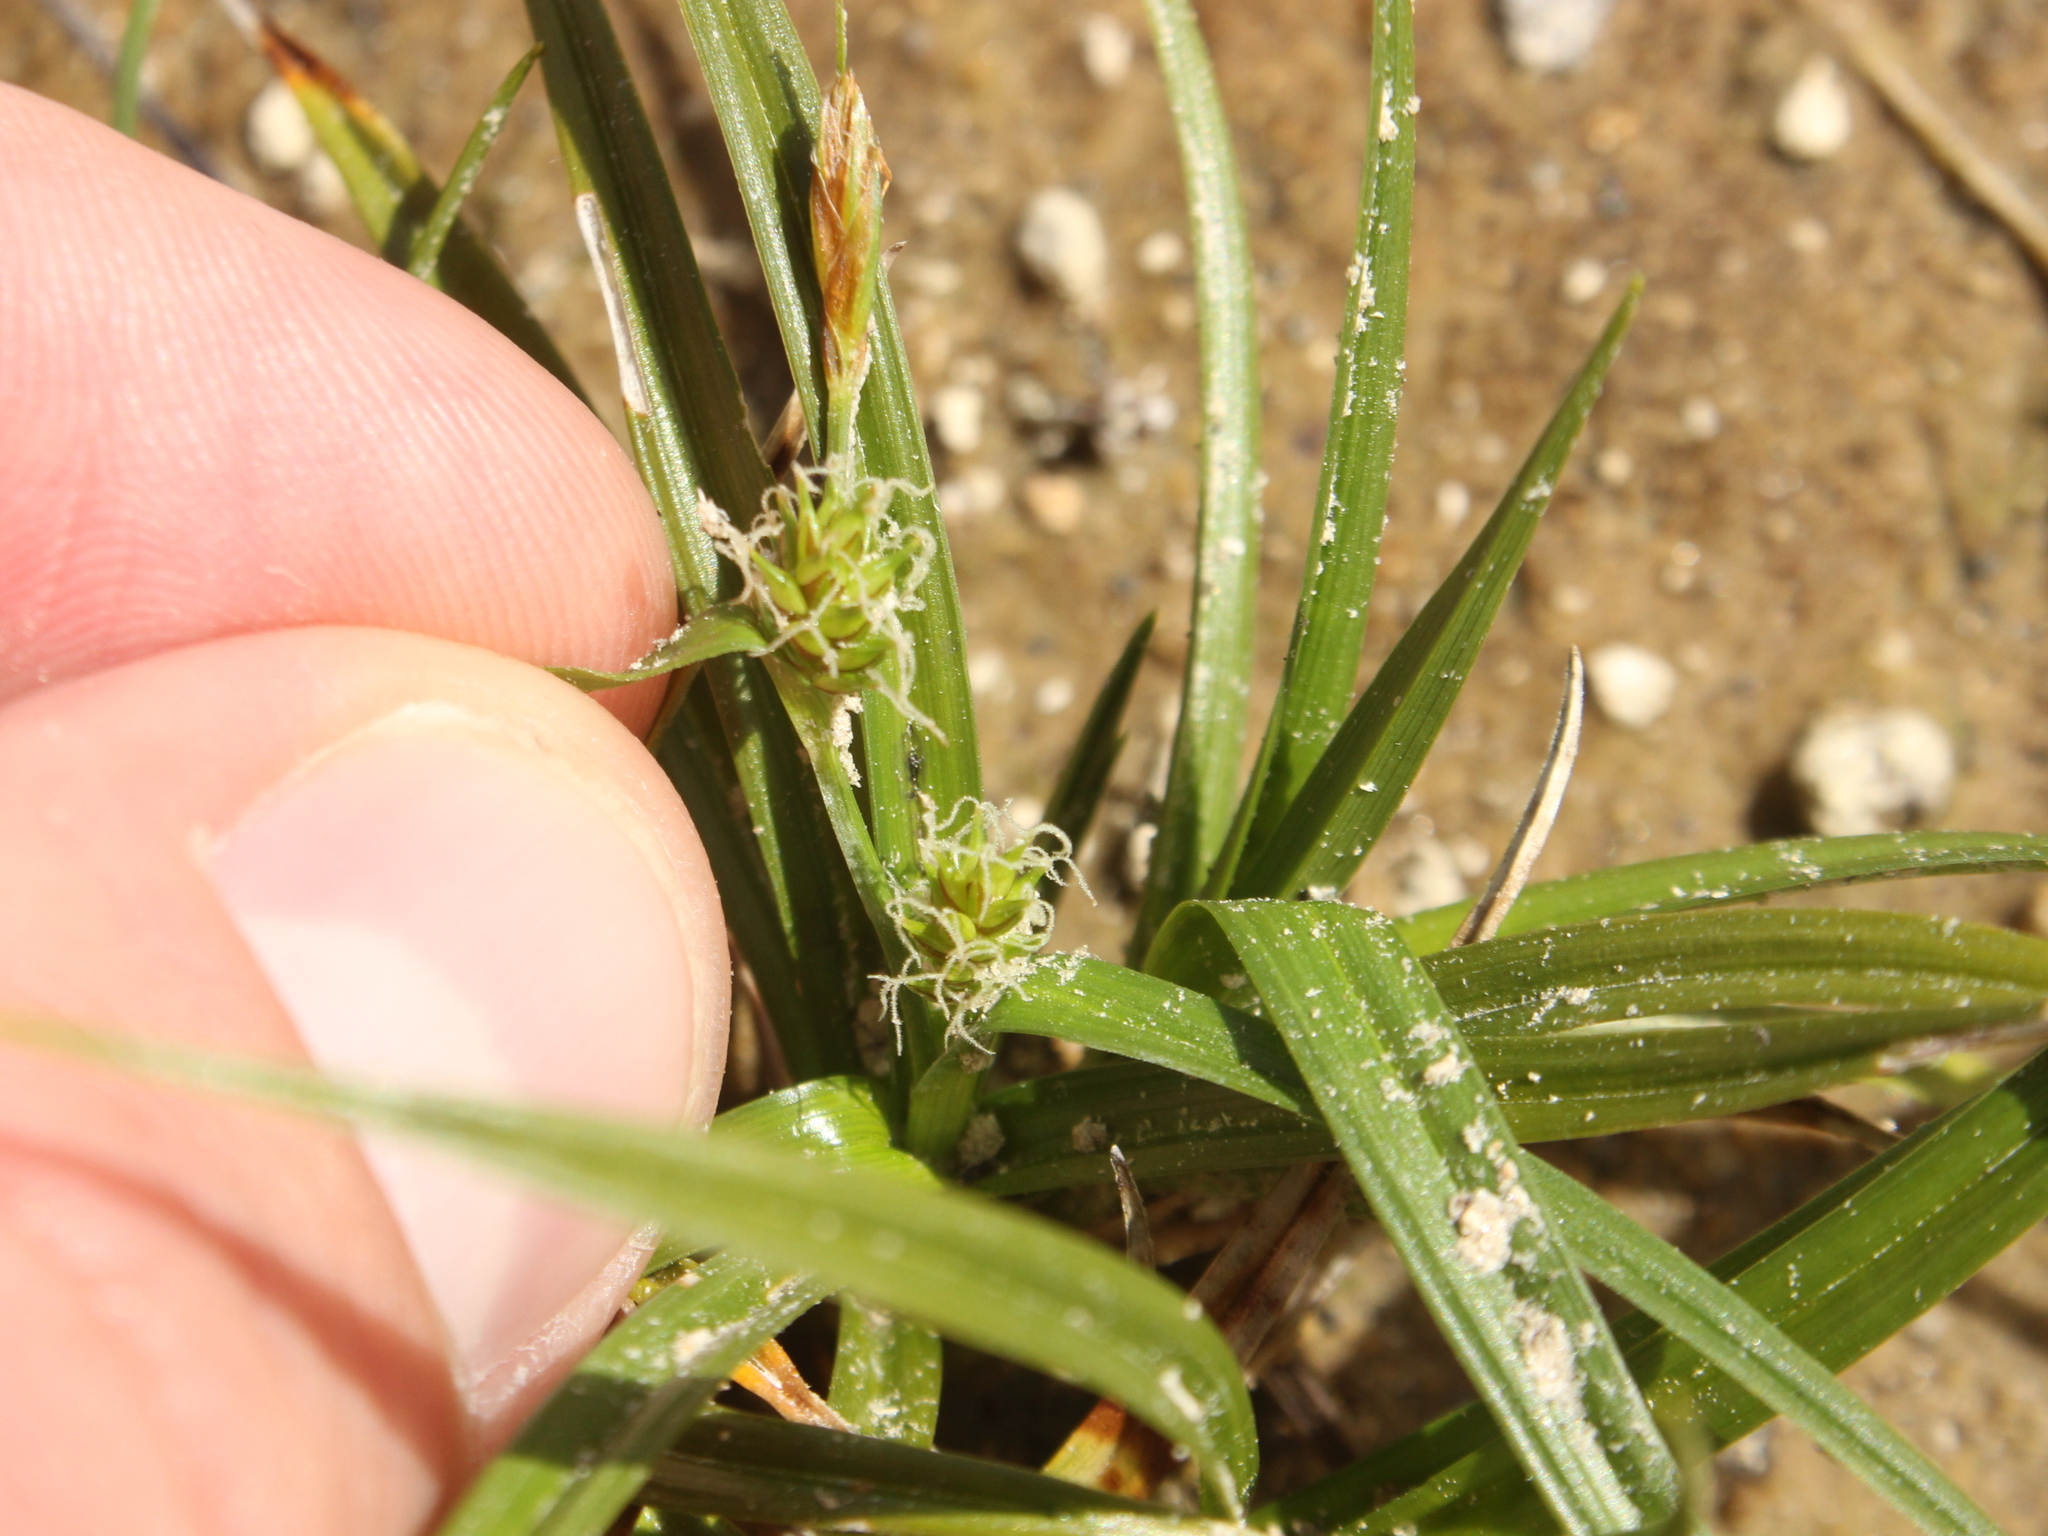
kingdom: Plantae
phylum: Tracheophyta
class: Liliopsida
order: Poales
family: Cyperaceae
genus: Carex
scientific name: Carex breviculmis
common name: Asian shortstem sedge
